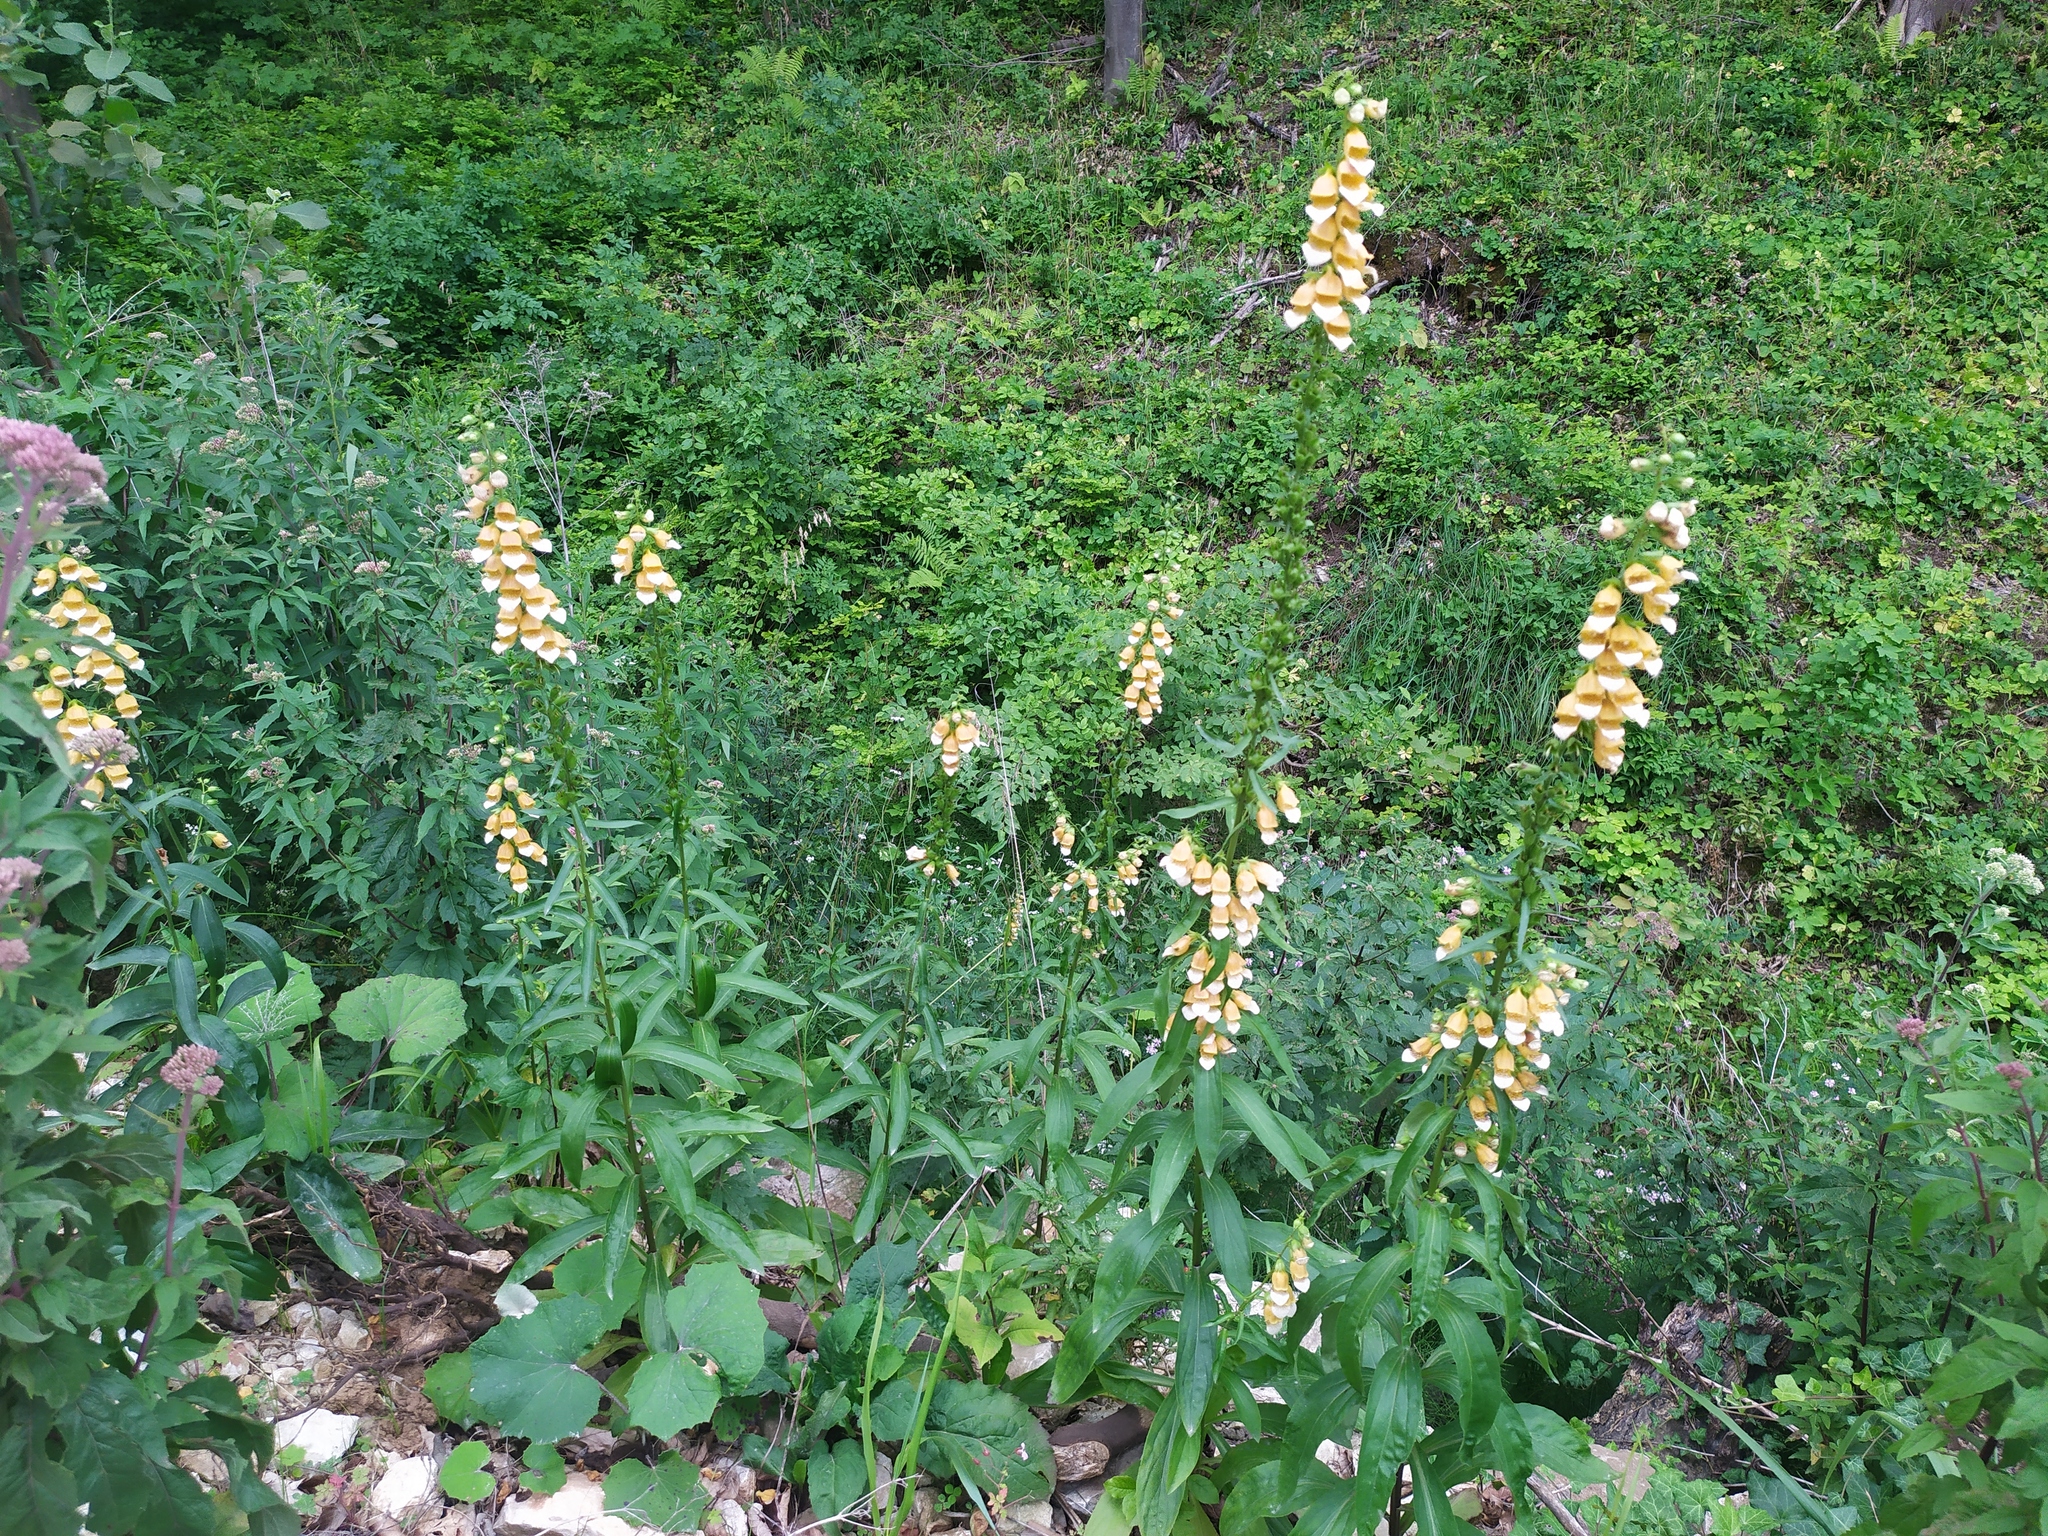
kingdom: Plantae
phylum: Tracheophyta
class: Magnoliopsida
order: Lamiales
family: Plantaginaceae
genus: Digitalis
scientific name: Digitalis laevigata
